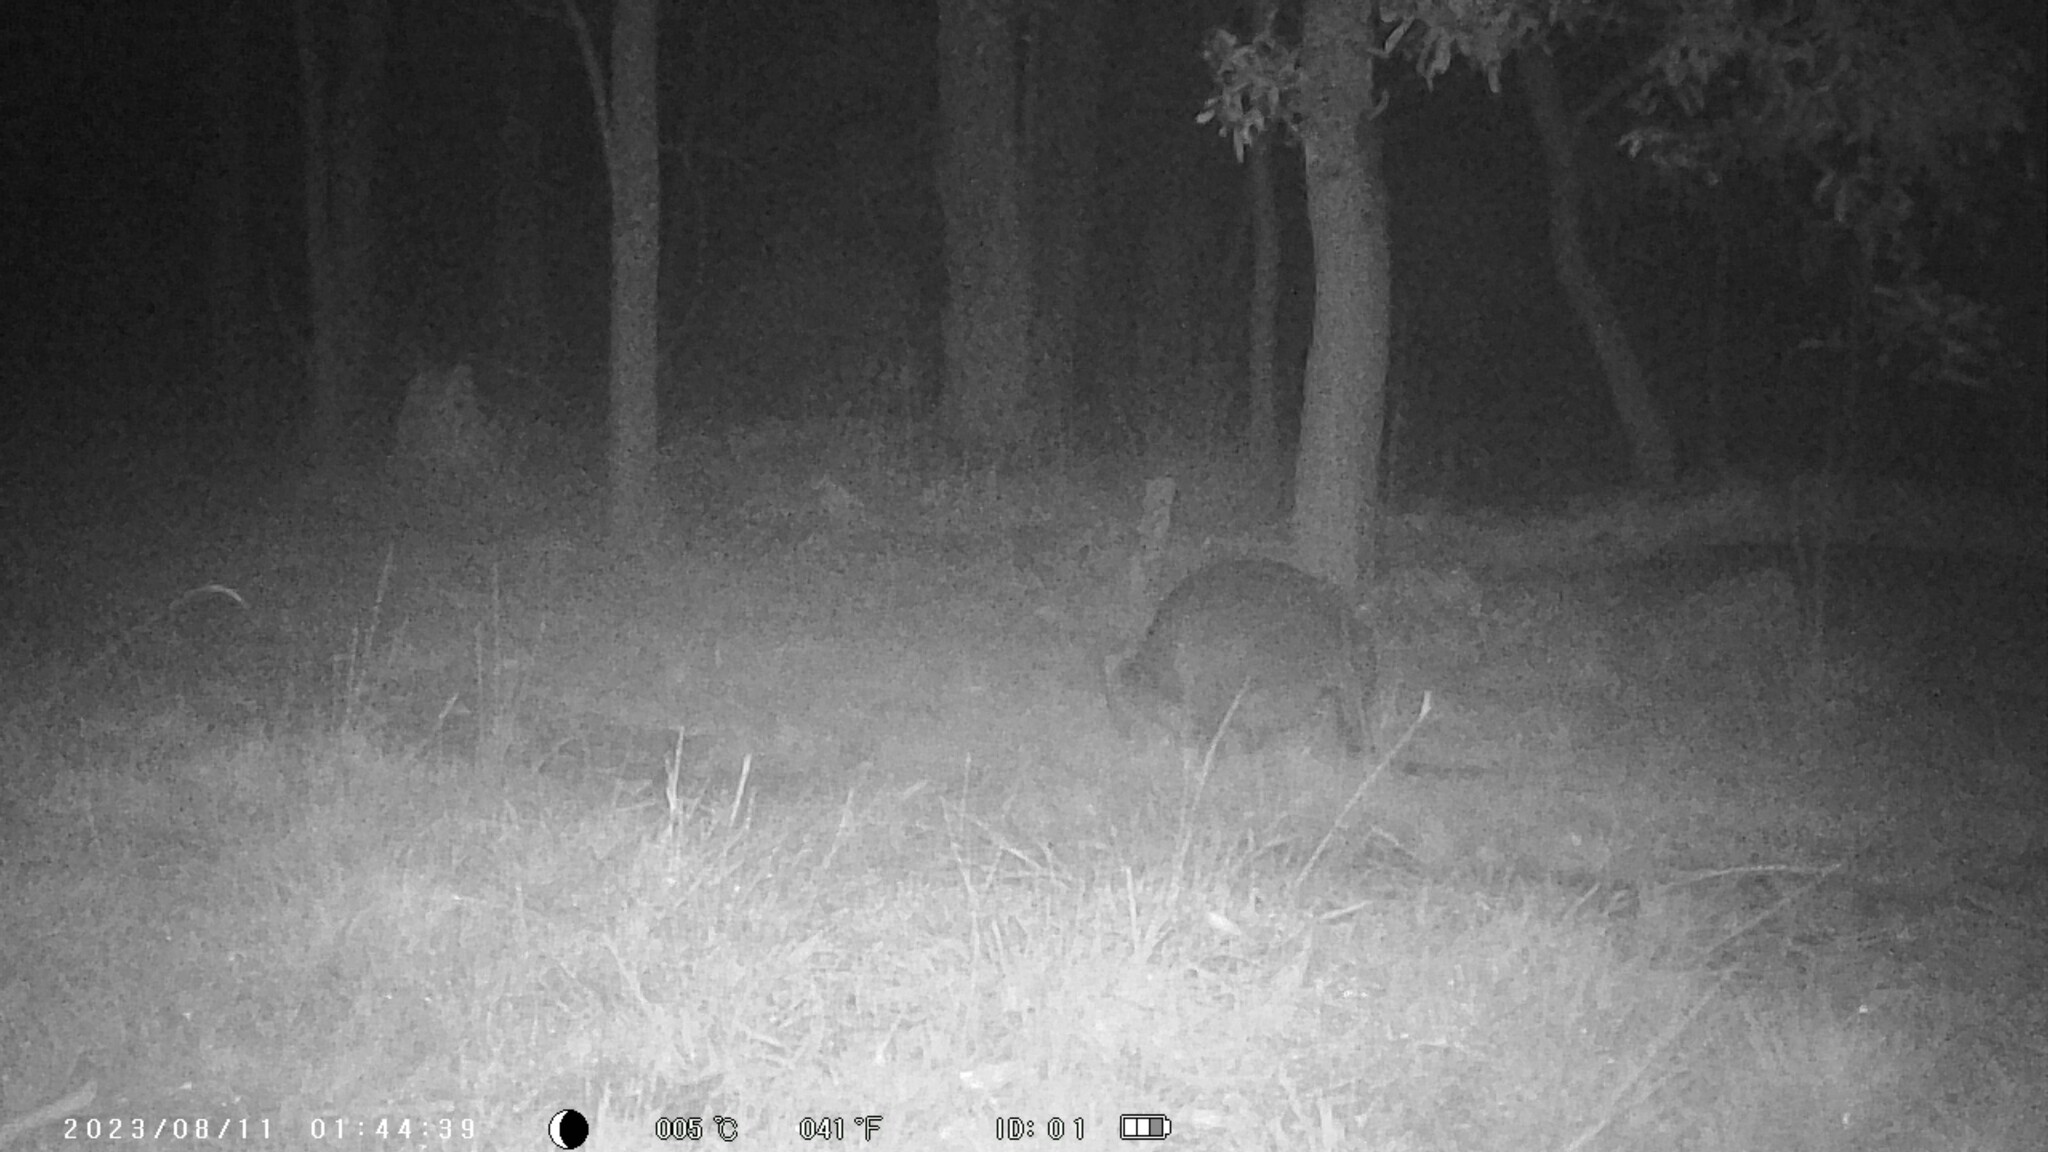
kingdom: Animalia
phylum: Chordata
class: Mammalia
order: Diprotodontia
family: Macropodidae
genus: Wallabia
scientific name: Wallabia bicolor
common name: Swamp wallaby
